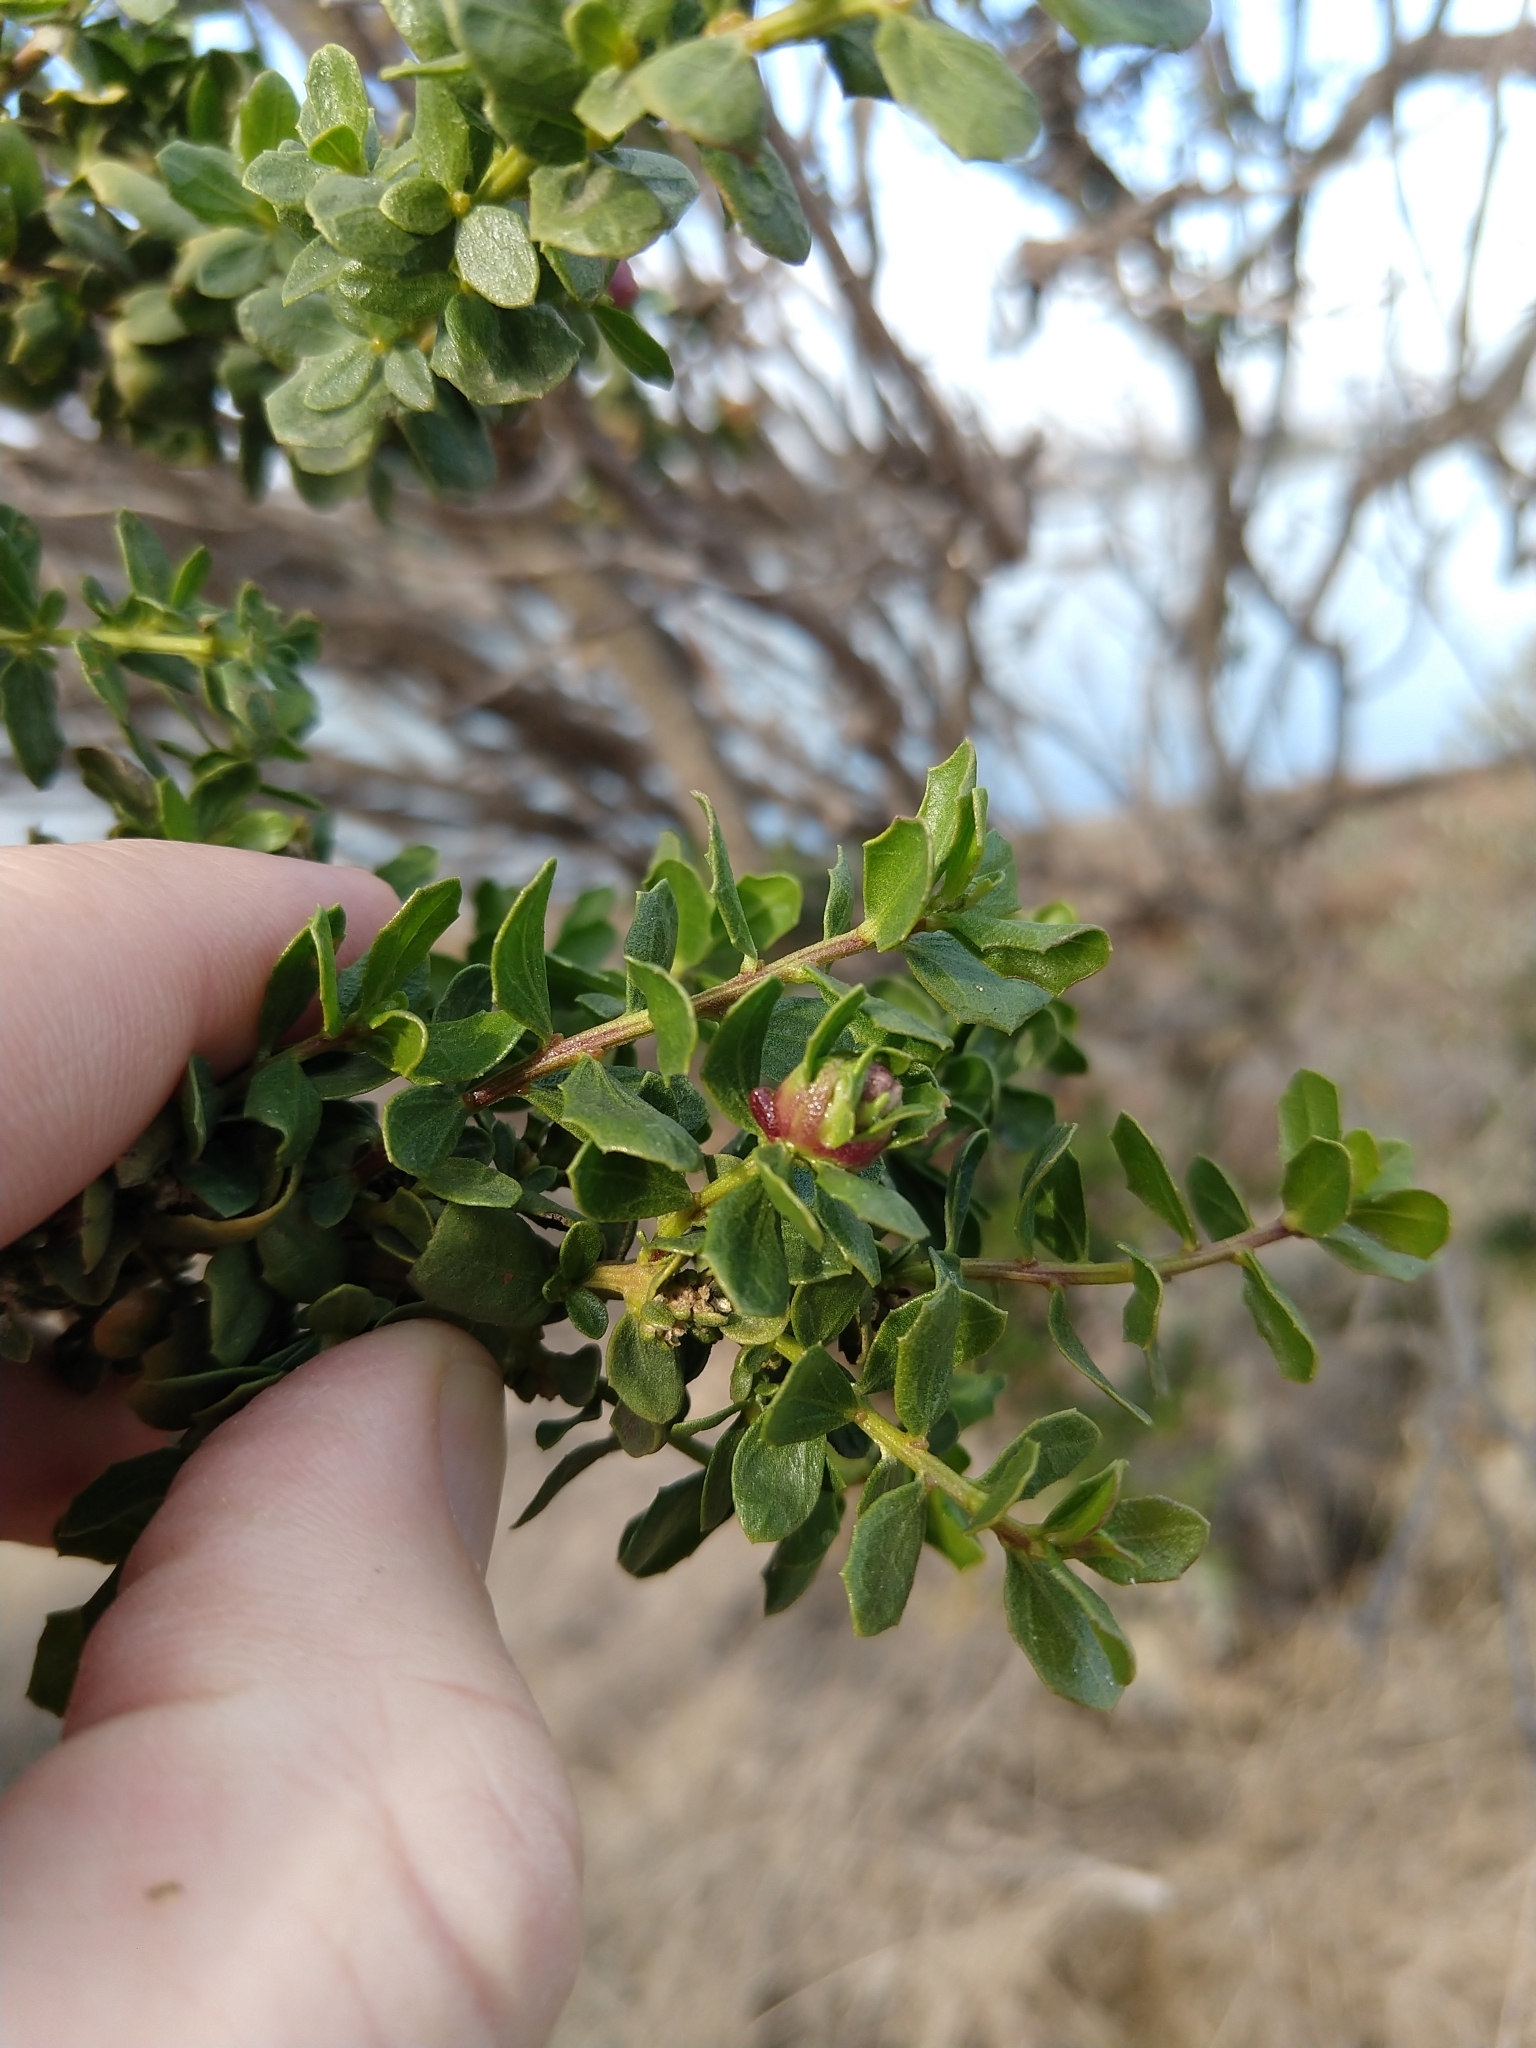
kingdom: Animalia
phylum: Arthropoda
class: Insecta
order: Diptera
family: Cecidomyiidae
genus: Rhopalomyia
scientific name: Rhopalomyia californica
